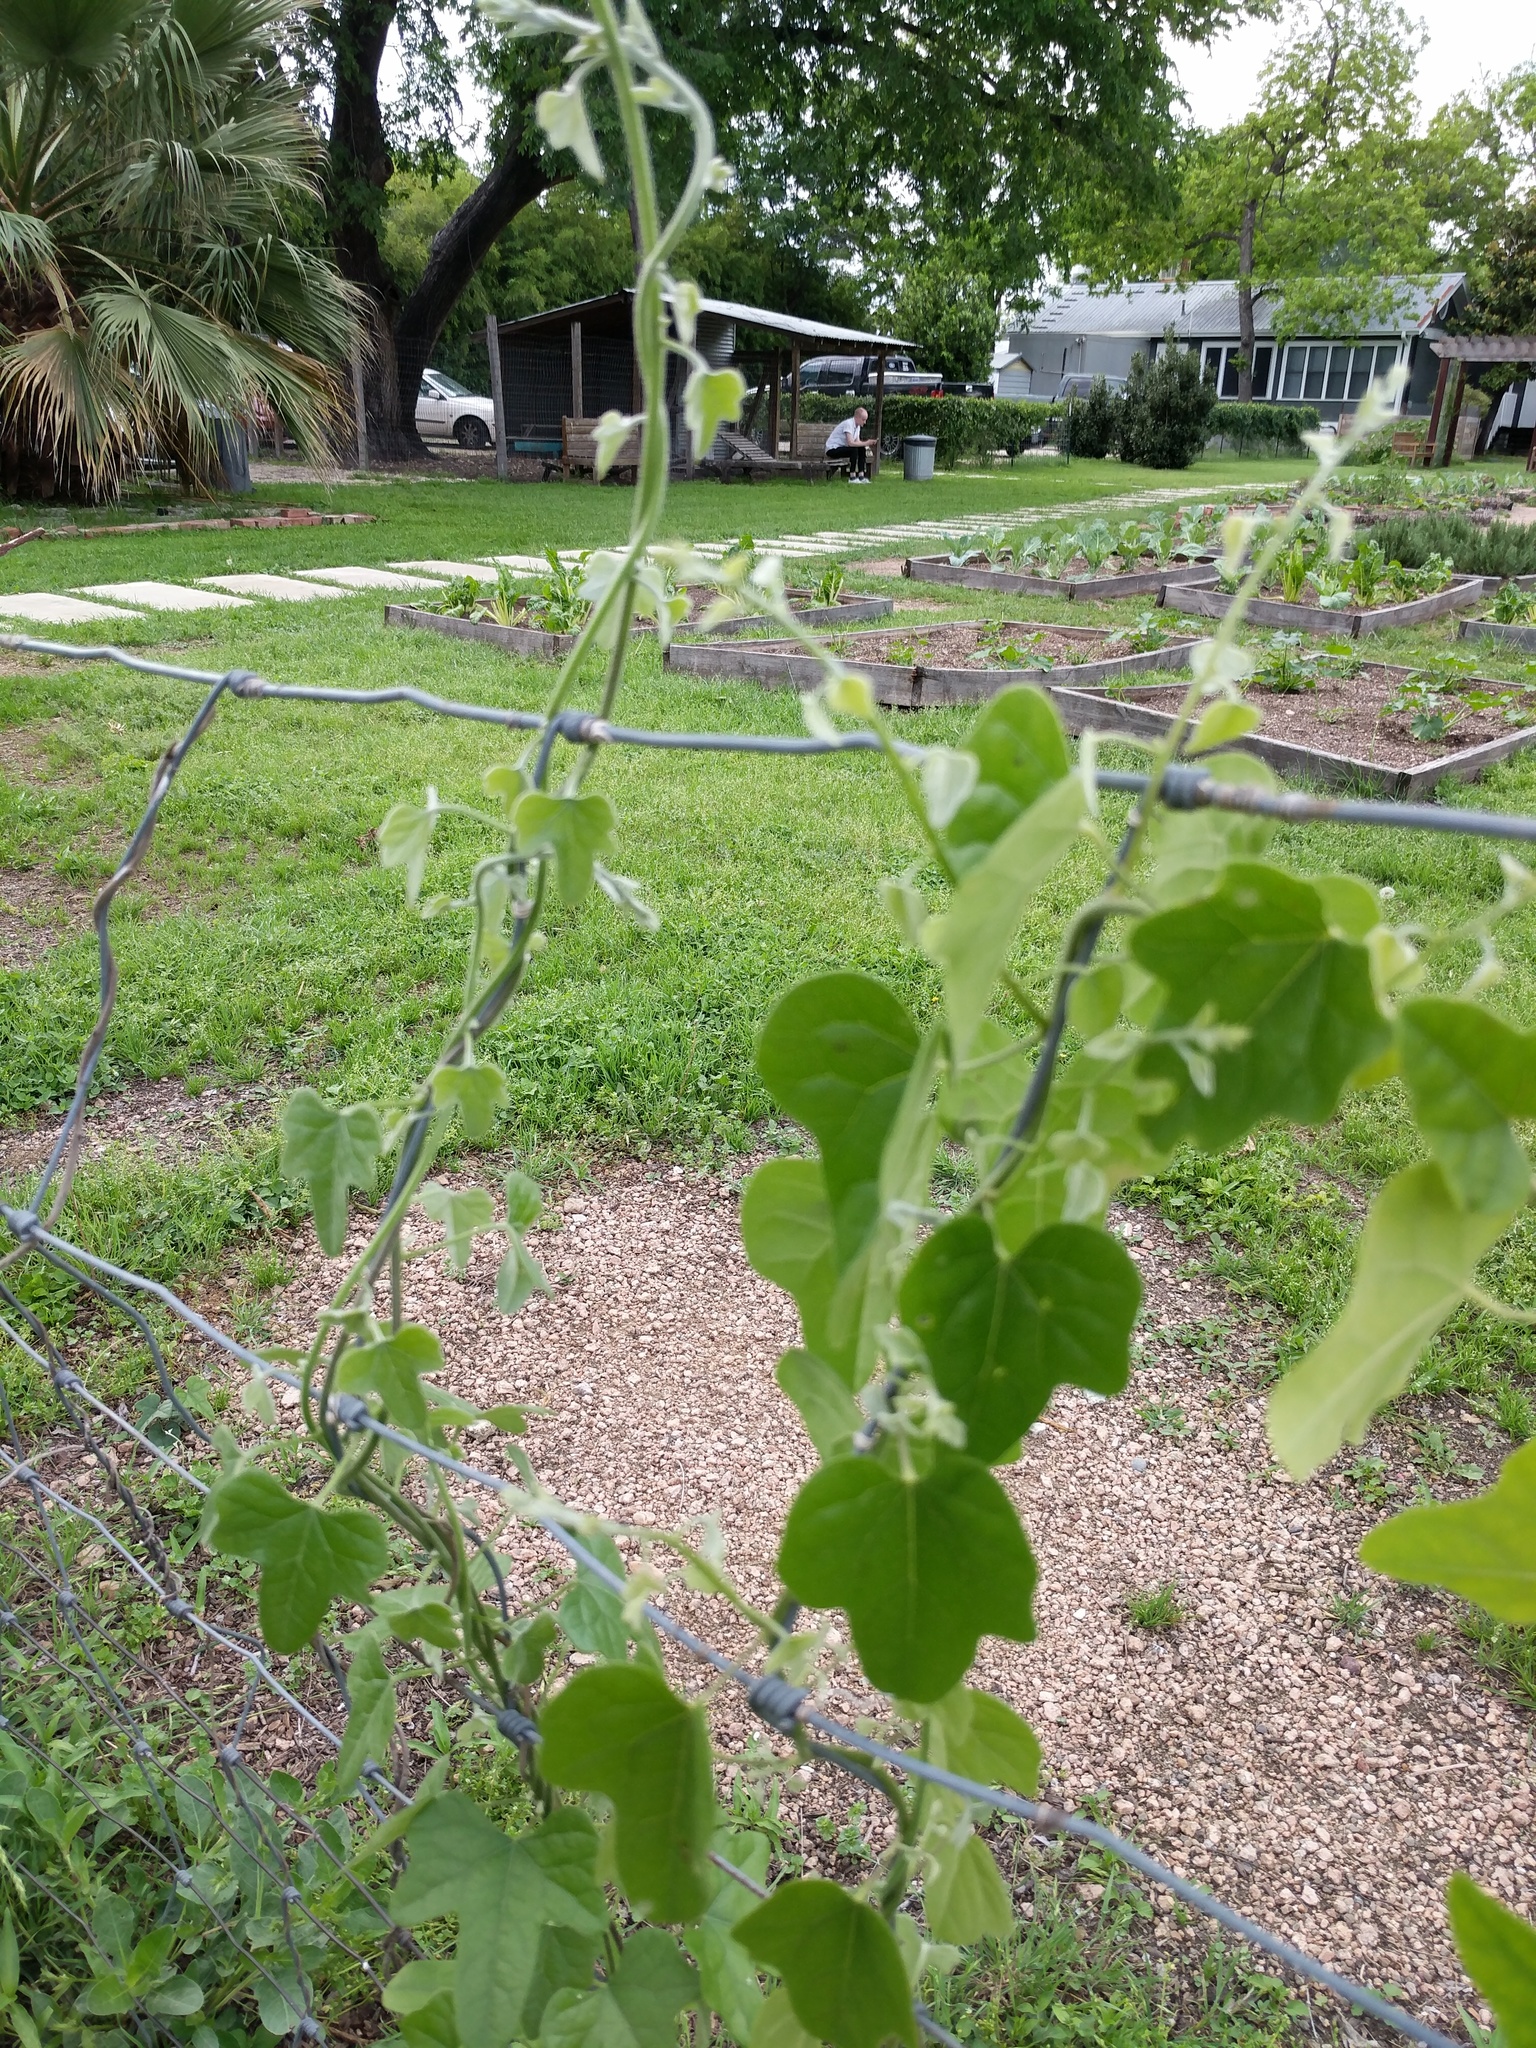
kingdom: Plantae
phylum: Tracheophyta
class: Magnoliopsida
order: Ranunculales
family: Menispermaceae
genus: Cocculus
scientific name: Cocculus carolinus
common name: Carolina moonseed
